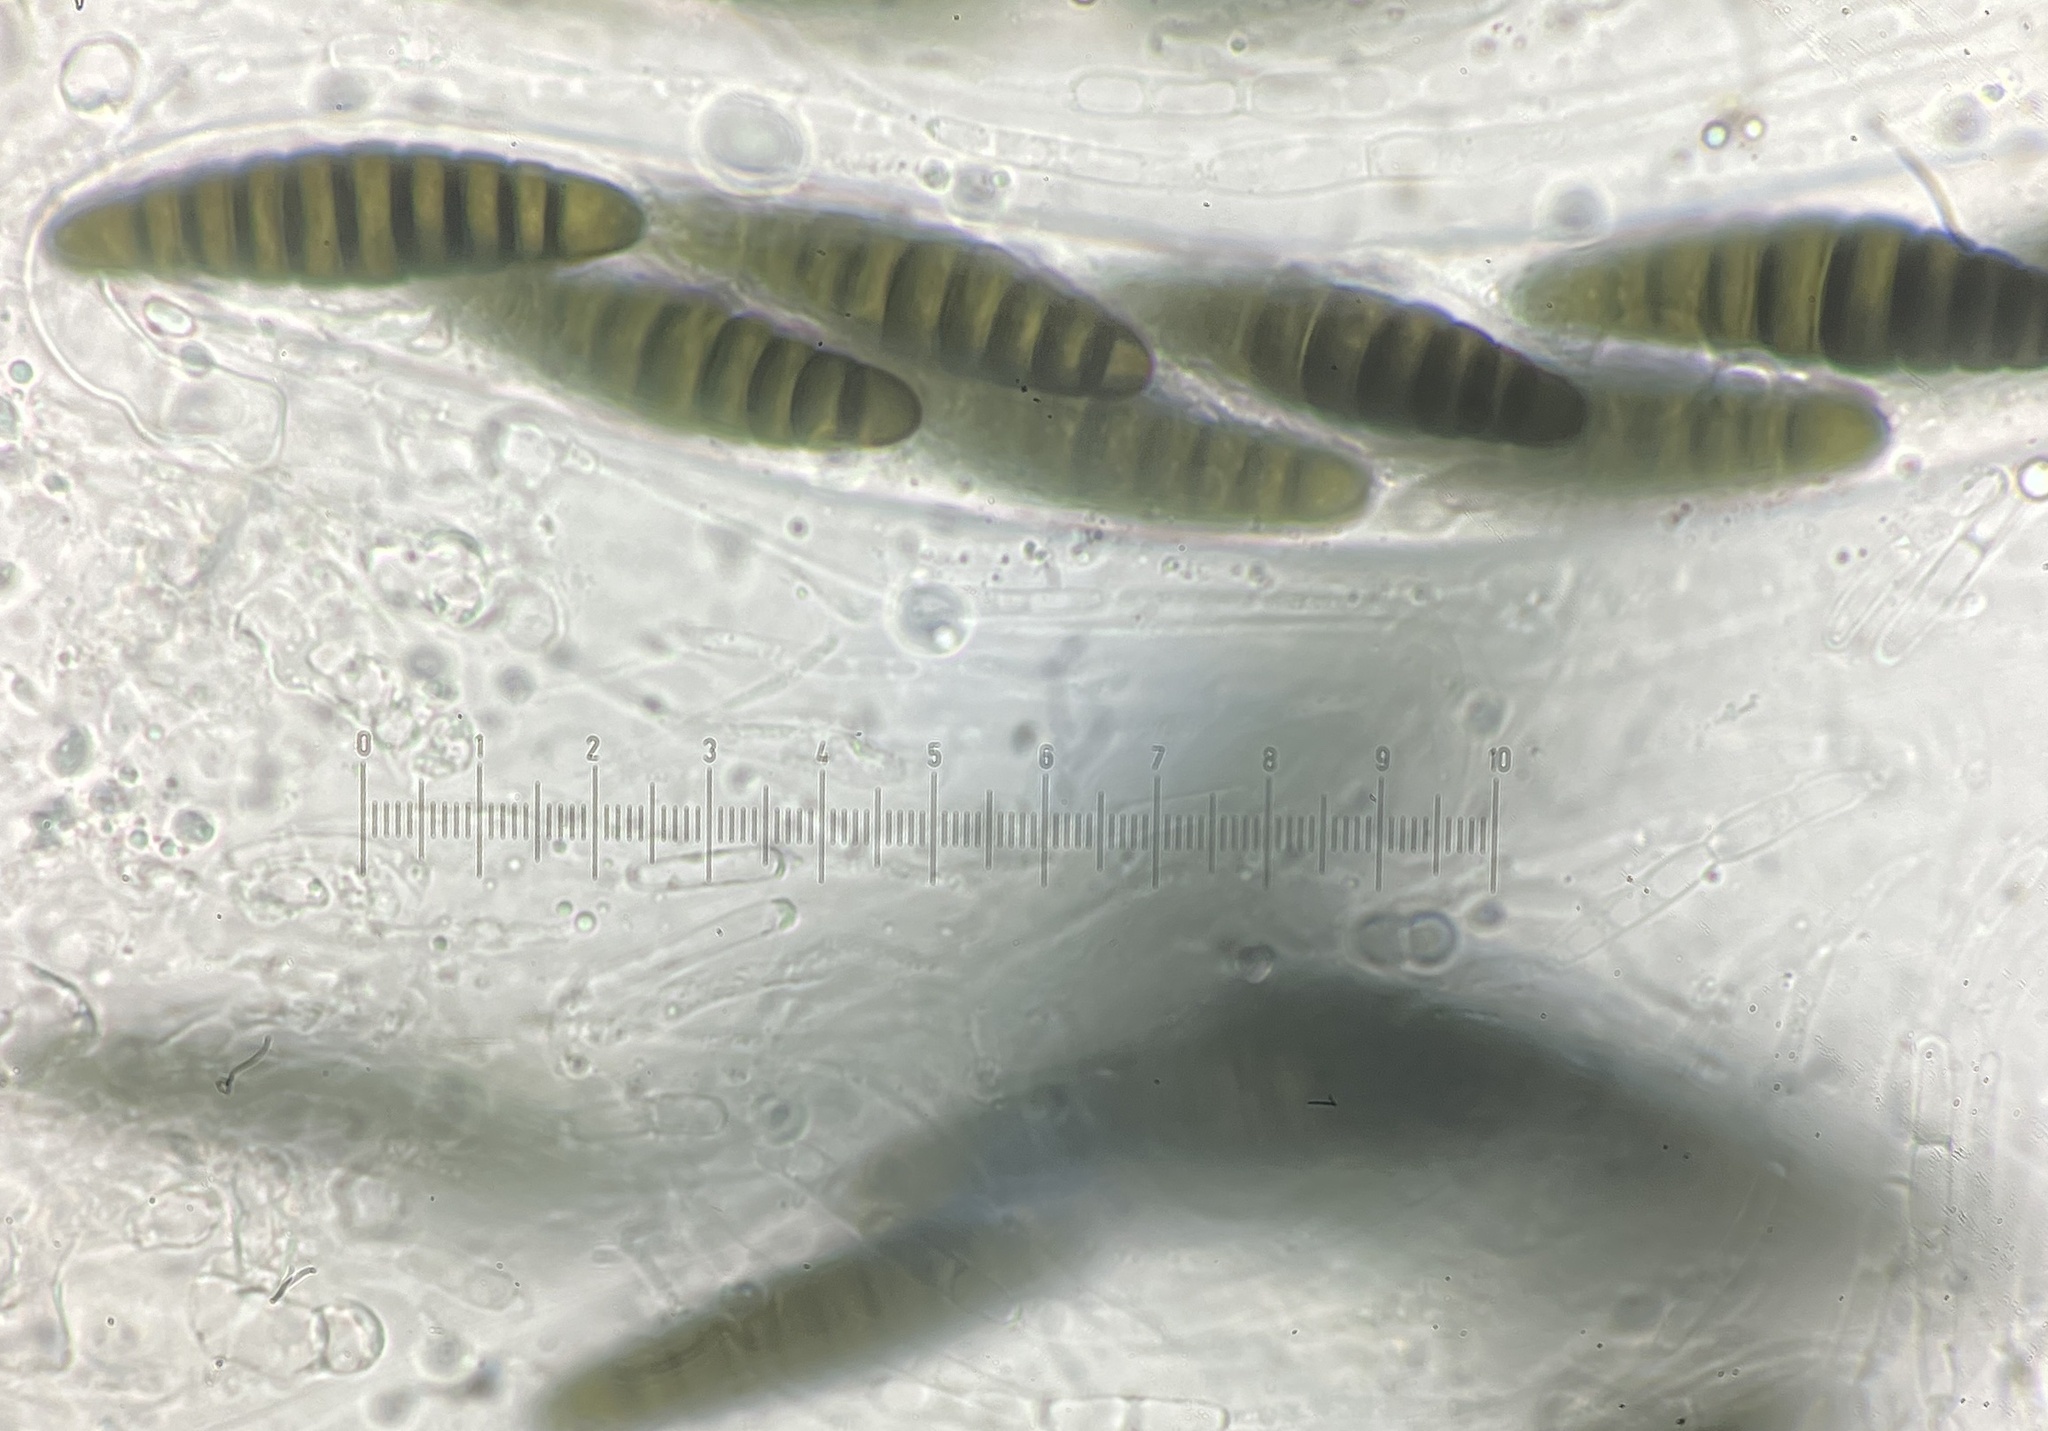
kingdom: Fungi
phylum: Ascomycota
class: Dothideomycetes
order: Pleosporales
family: Sporormiaceae
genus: Preussia
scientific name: Preussia calomera
